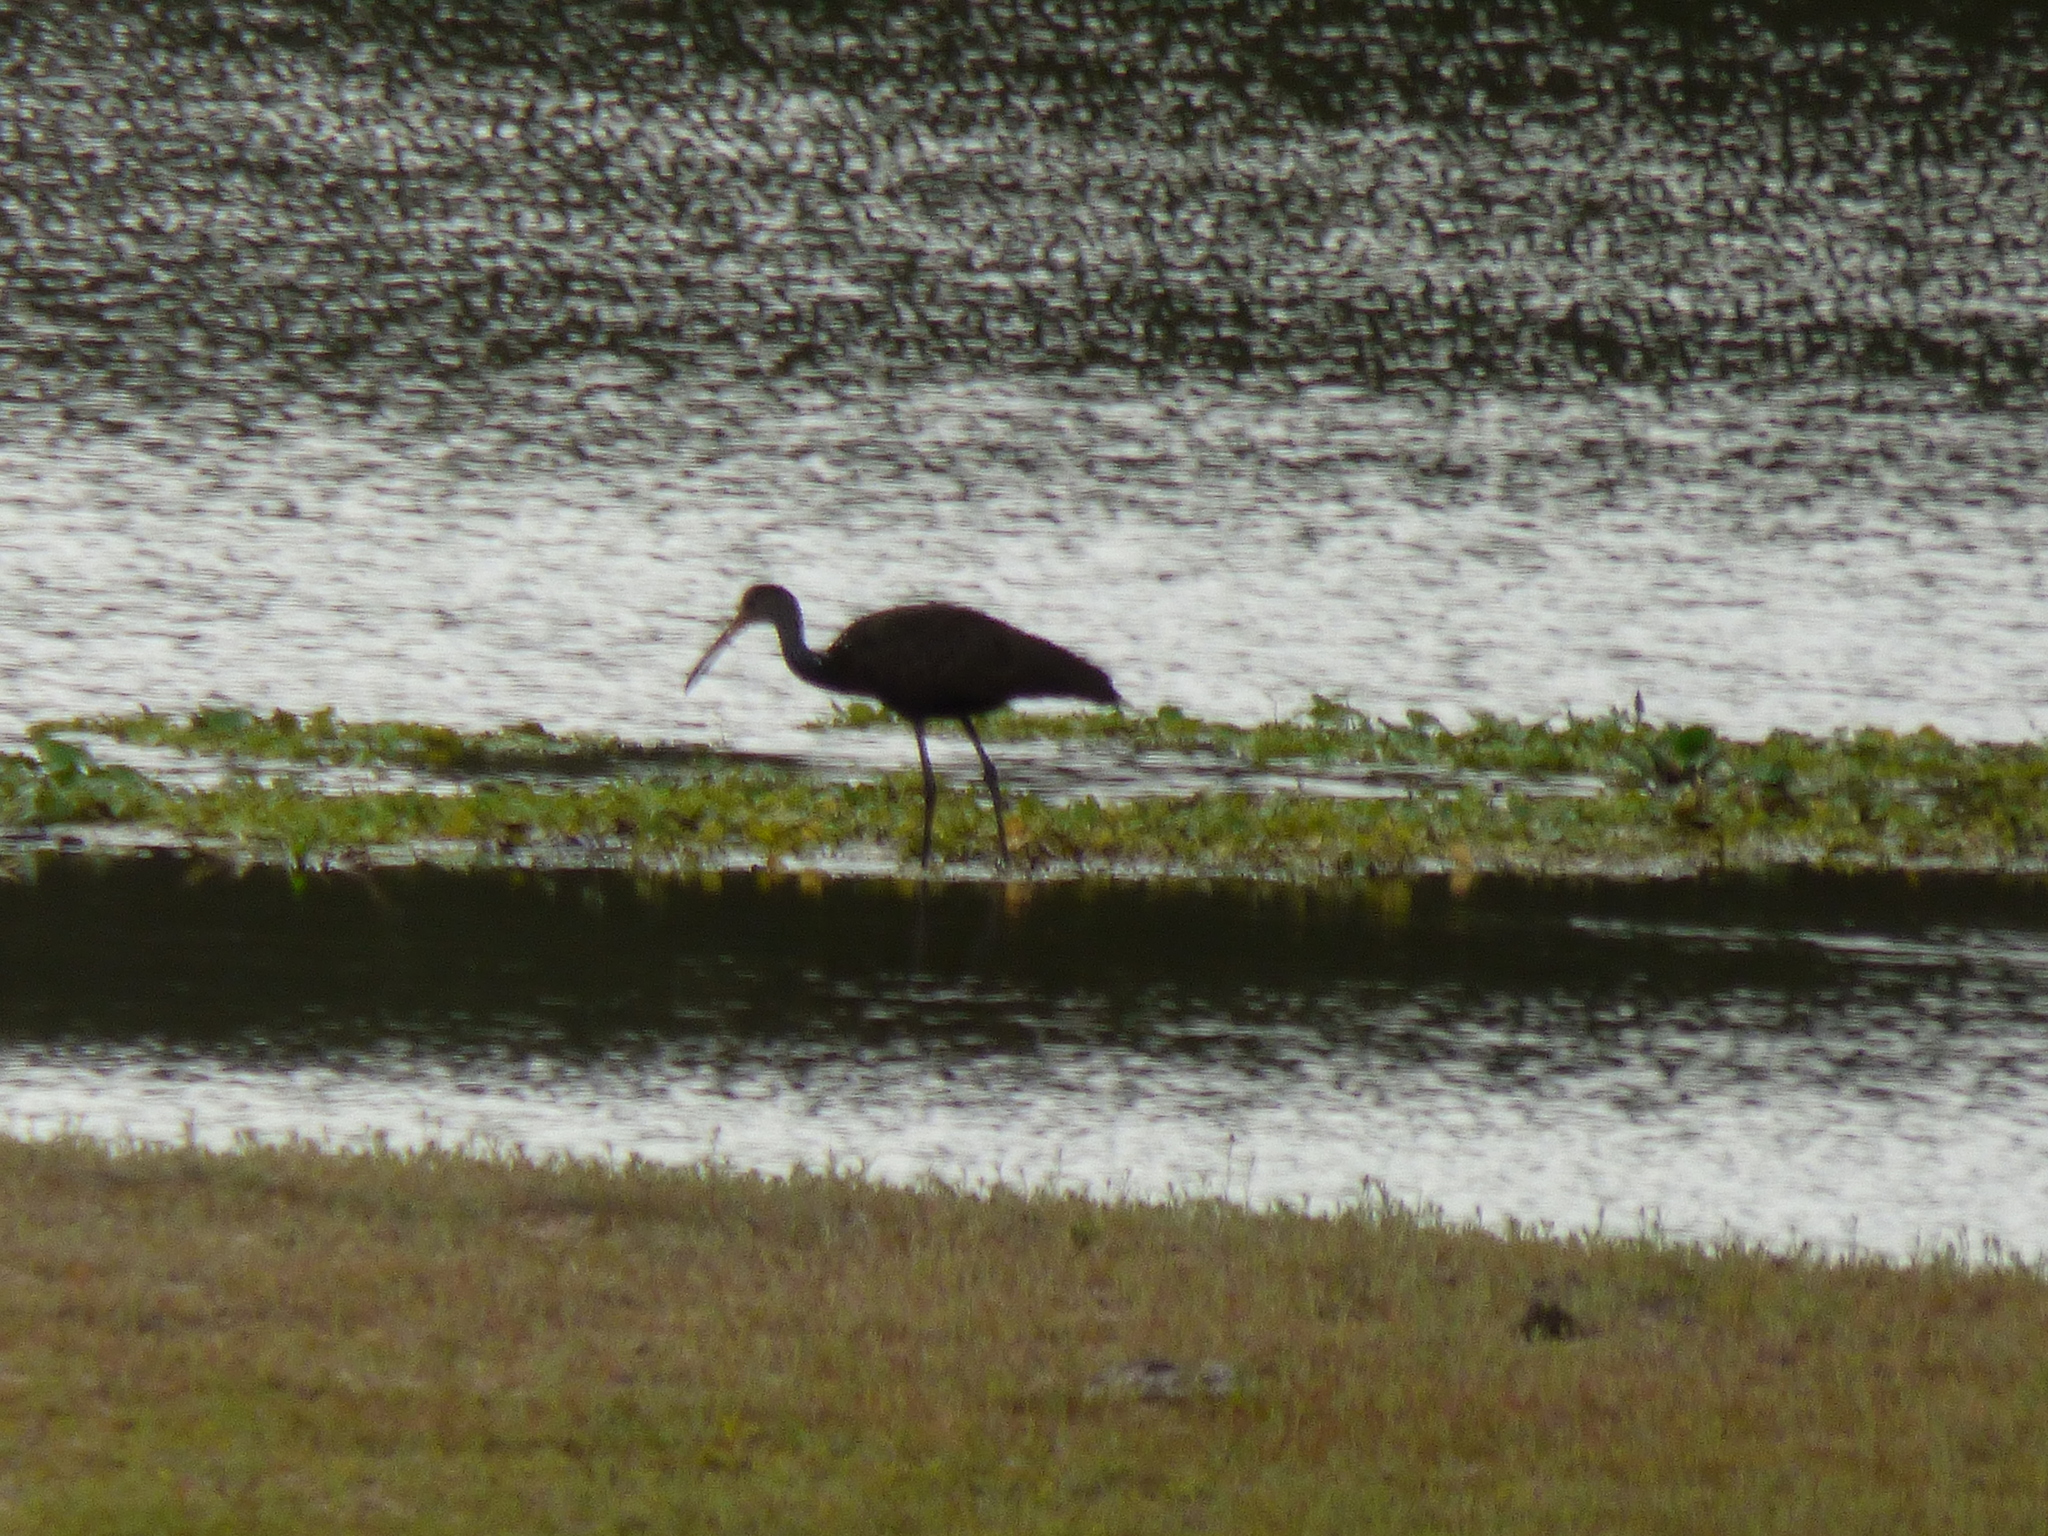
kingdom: Animalia
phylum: Chordata
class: Aves
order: Gruiformes
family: Aramidae
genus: Aramus
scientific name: Aramus guarauna
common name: Limpkin
